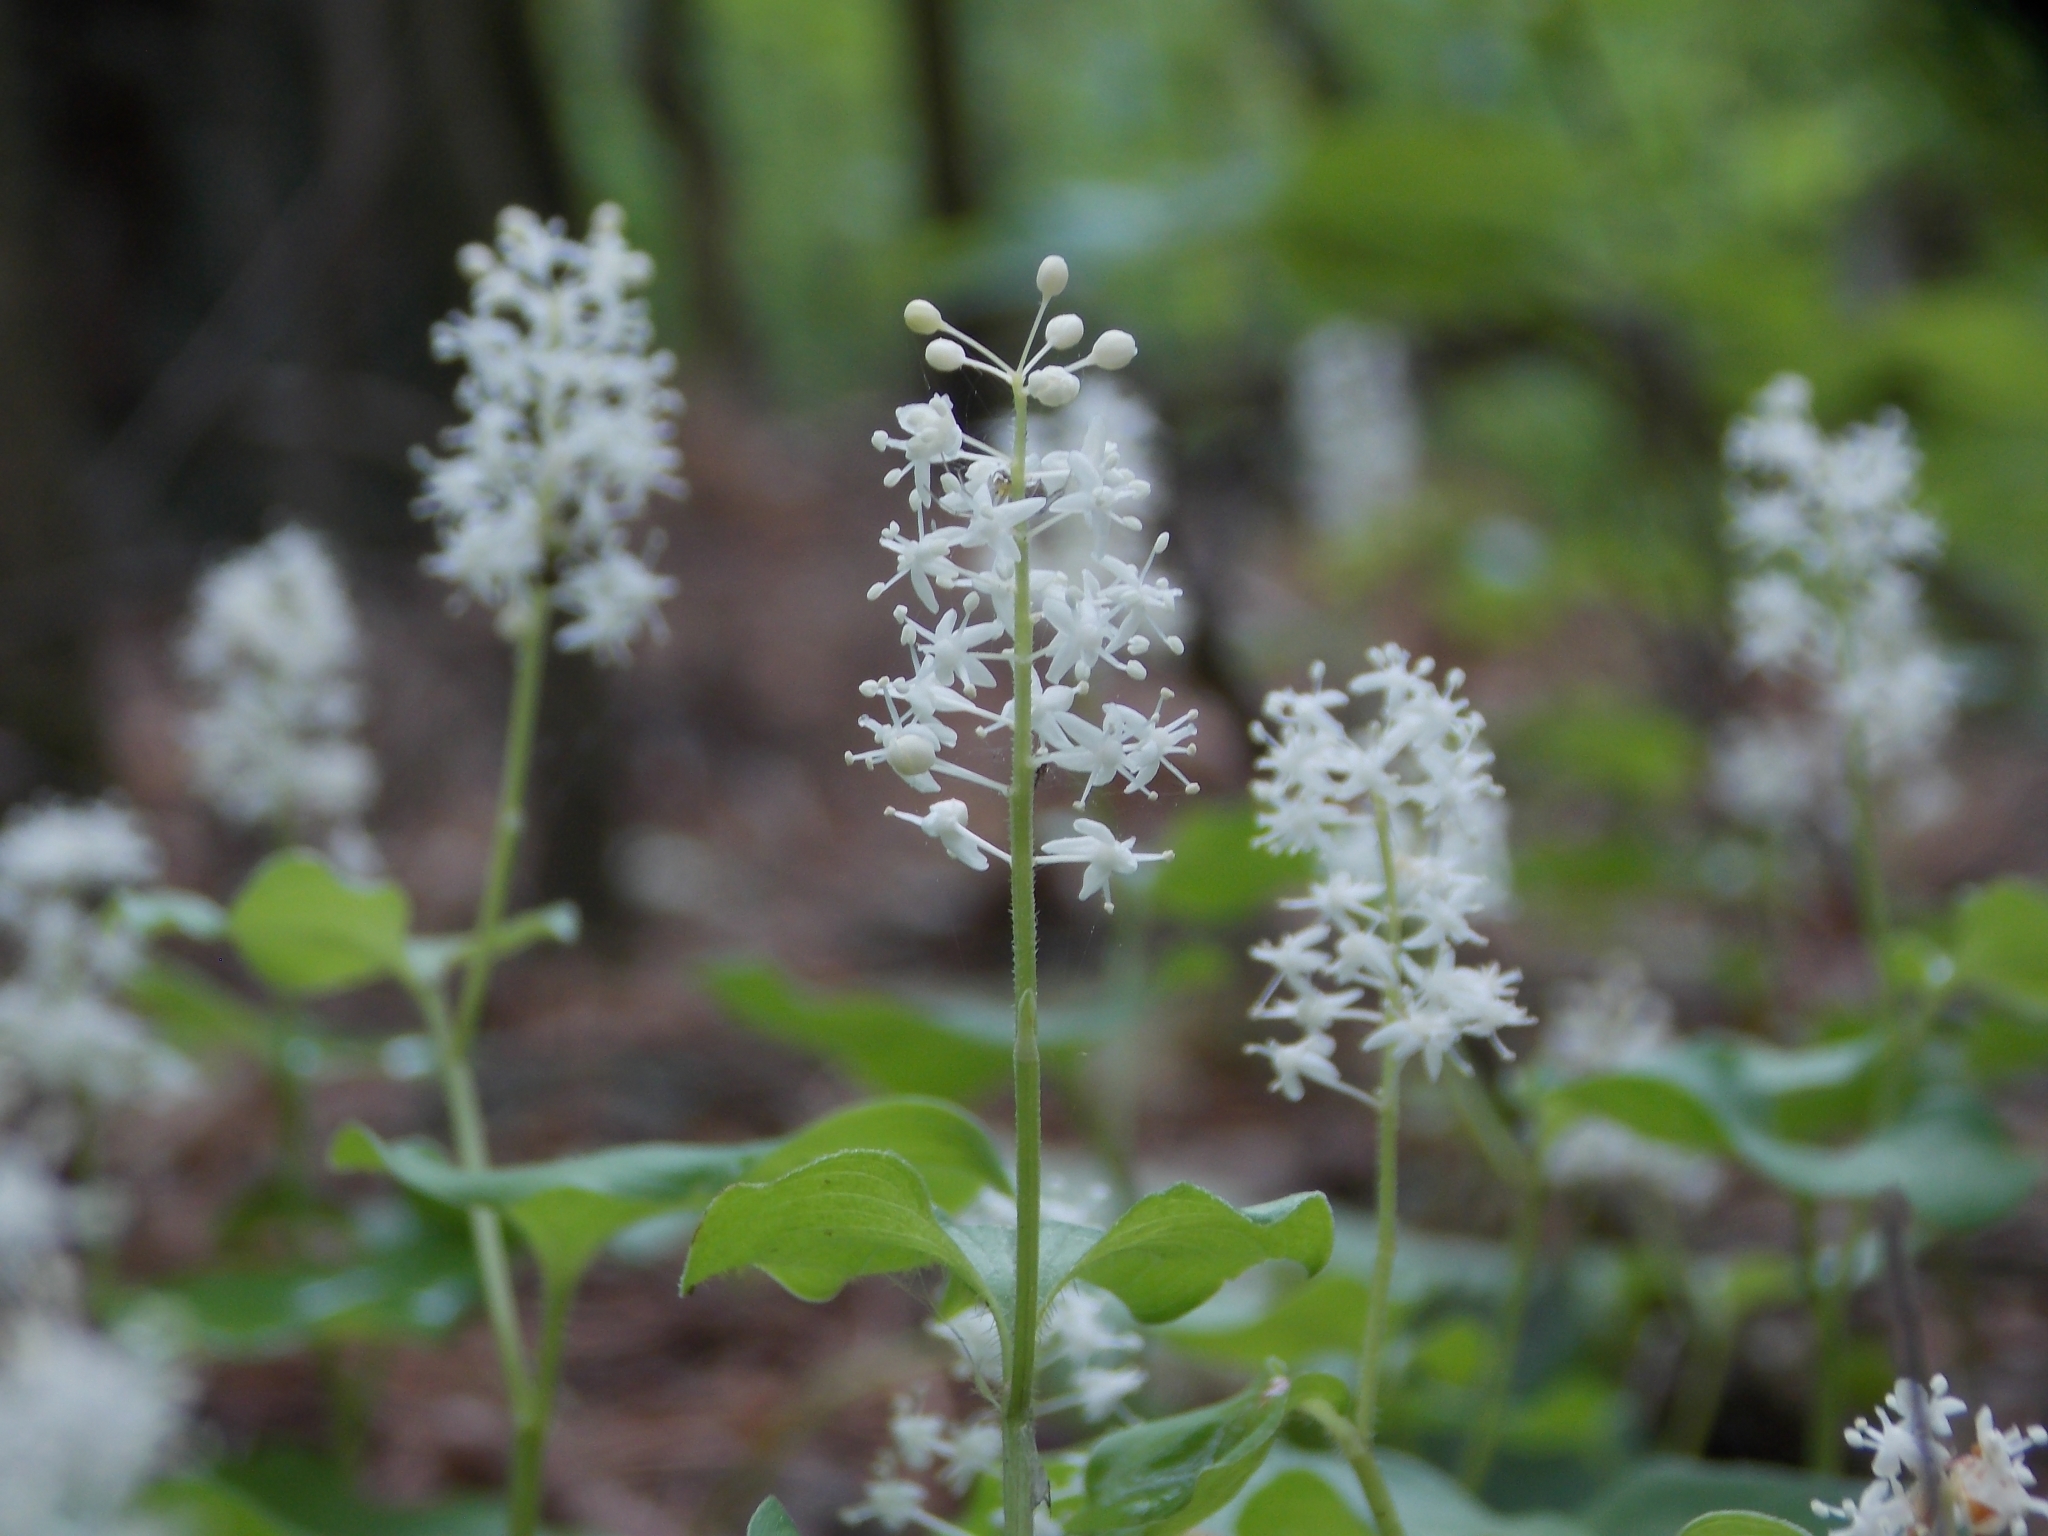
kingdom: Plantae
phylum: Tracheophyta
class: Liliopsida
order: Asparagales
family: Asparagaceae
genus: Maianthemum
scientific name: Maianthemum bifolium
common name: May lily
